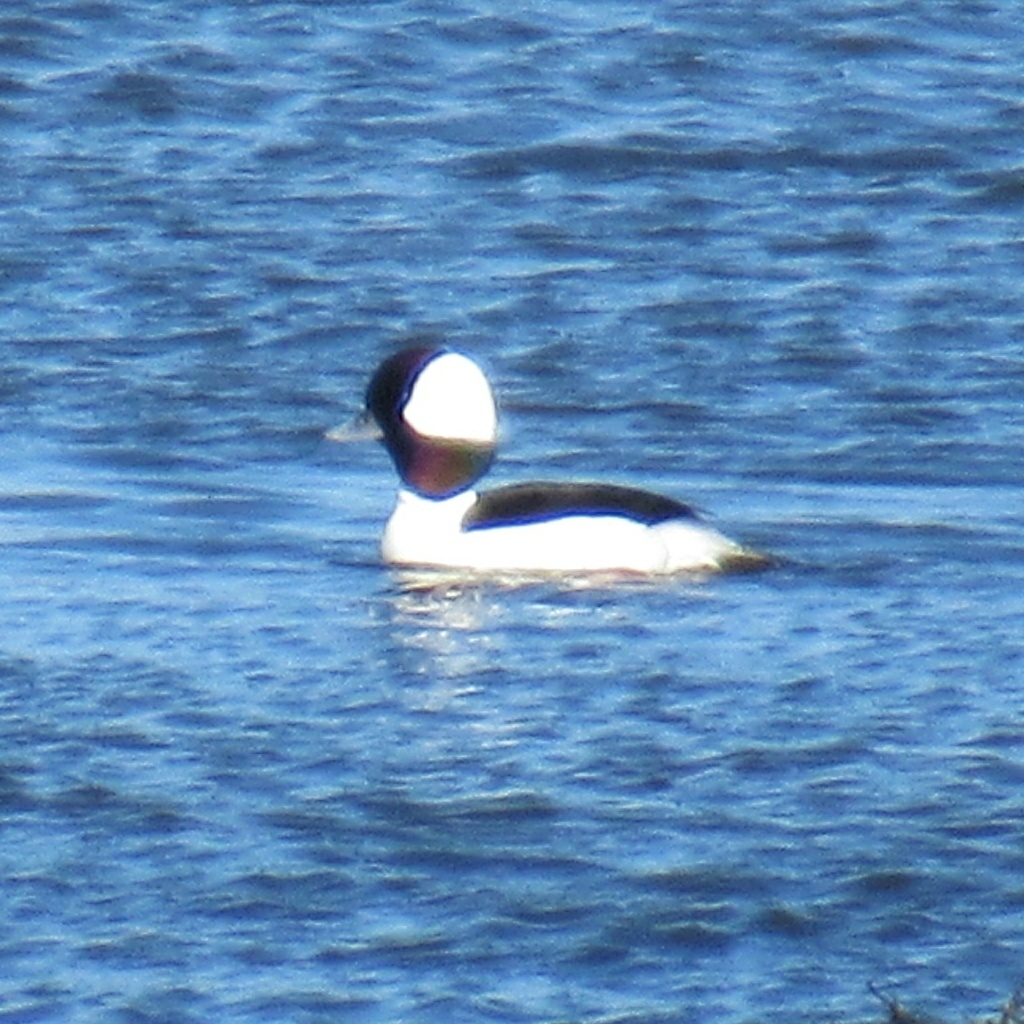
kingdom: Animalia
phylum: Chordata
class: Aves
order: Anseriformes
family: Anatidae
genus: Bucephala
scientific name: Bucephala albeola
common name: Bufflehead
